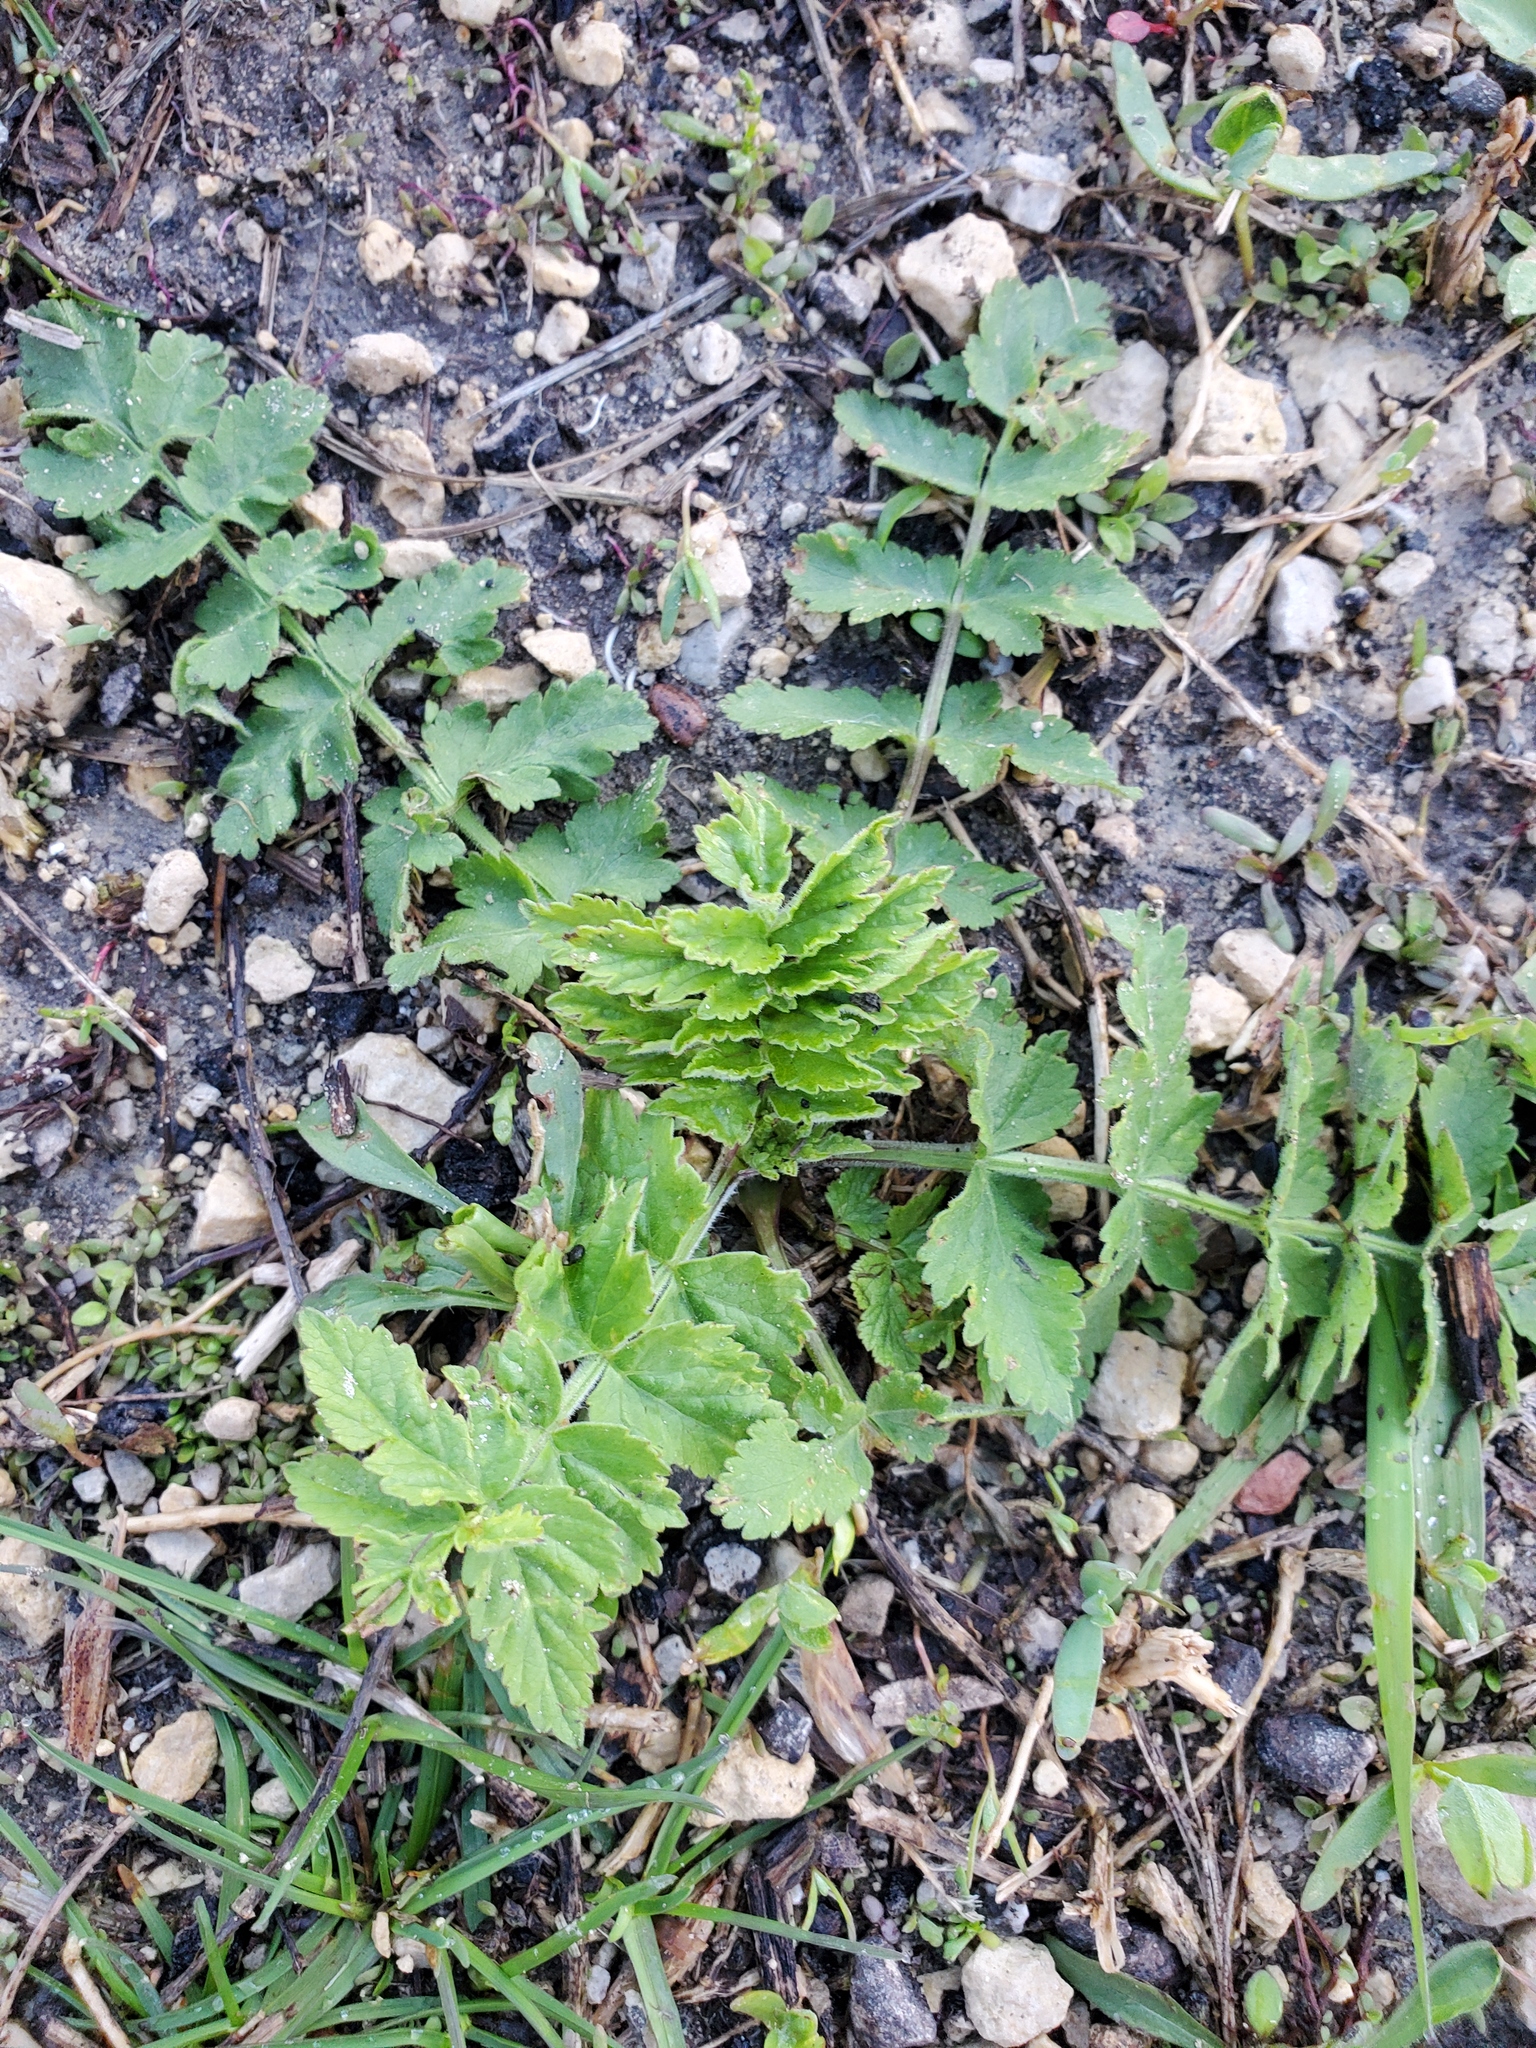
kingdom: Plantae
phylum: Tracheophyta
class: Magnoliopsida
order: Apiales
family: Apiaceae
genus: Pastinaca
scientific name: Pastinaca sativa
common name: Wild parsnip
